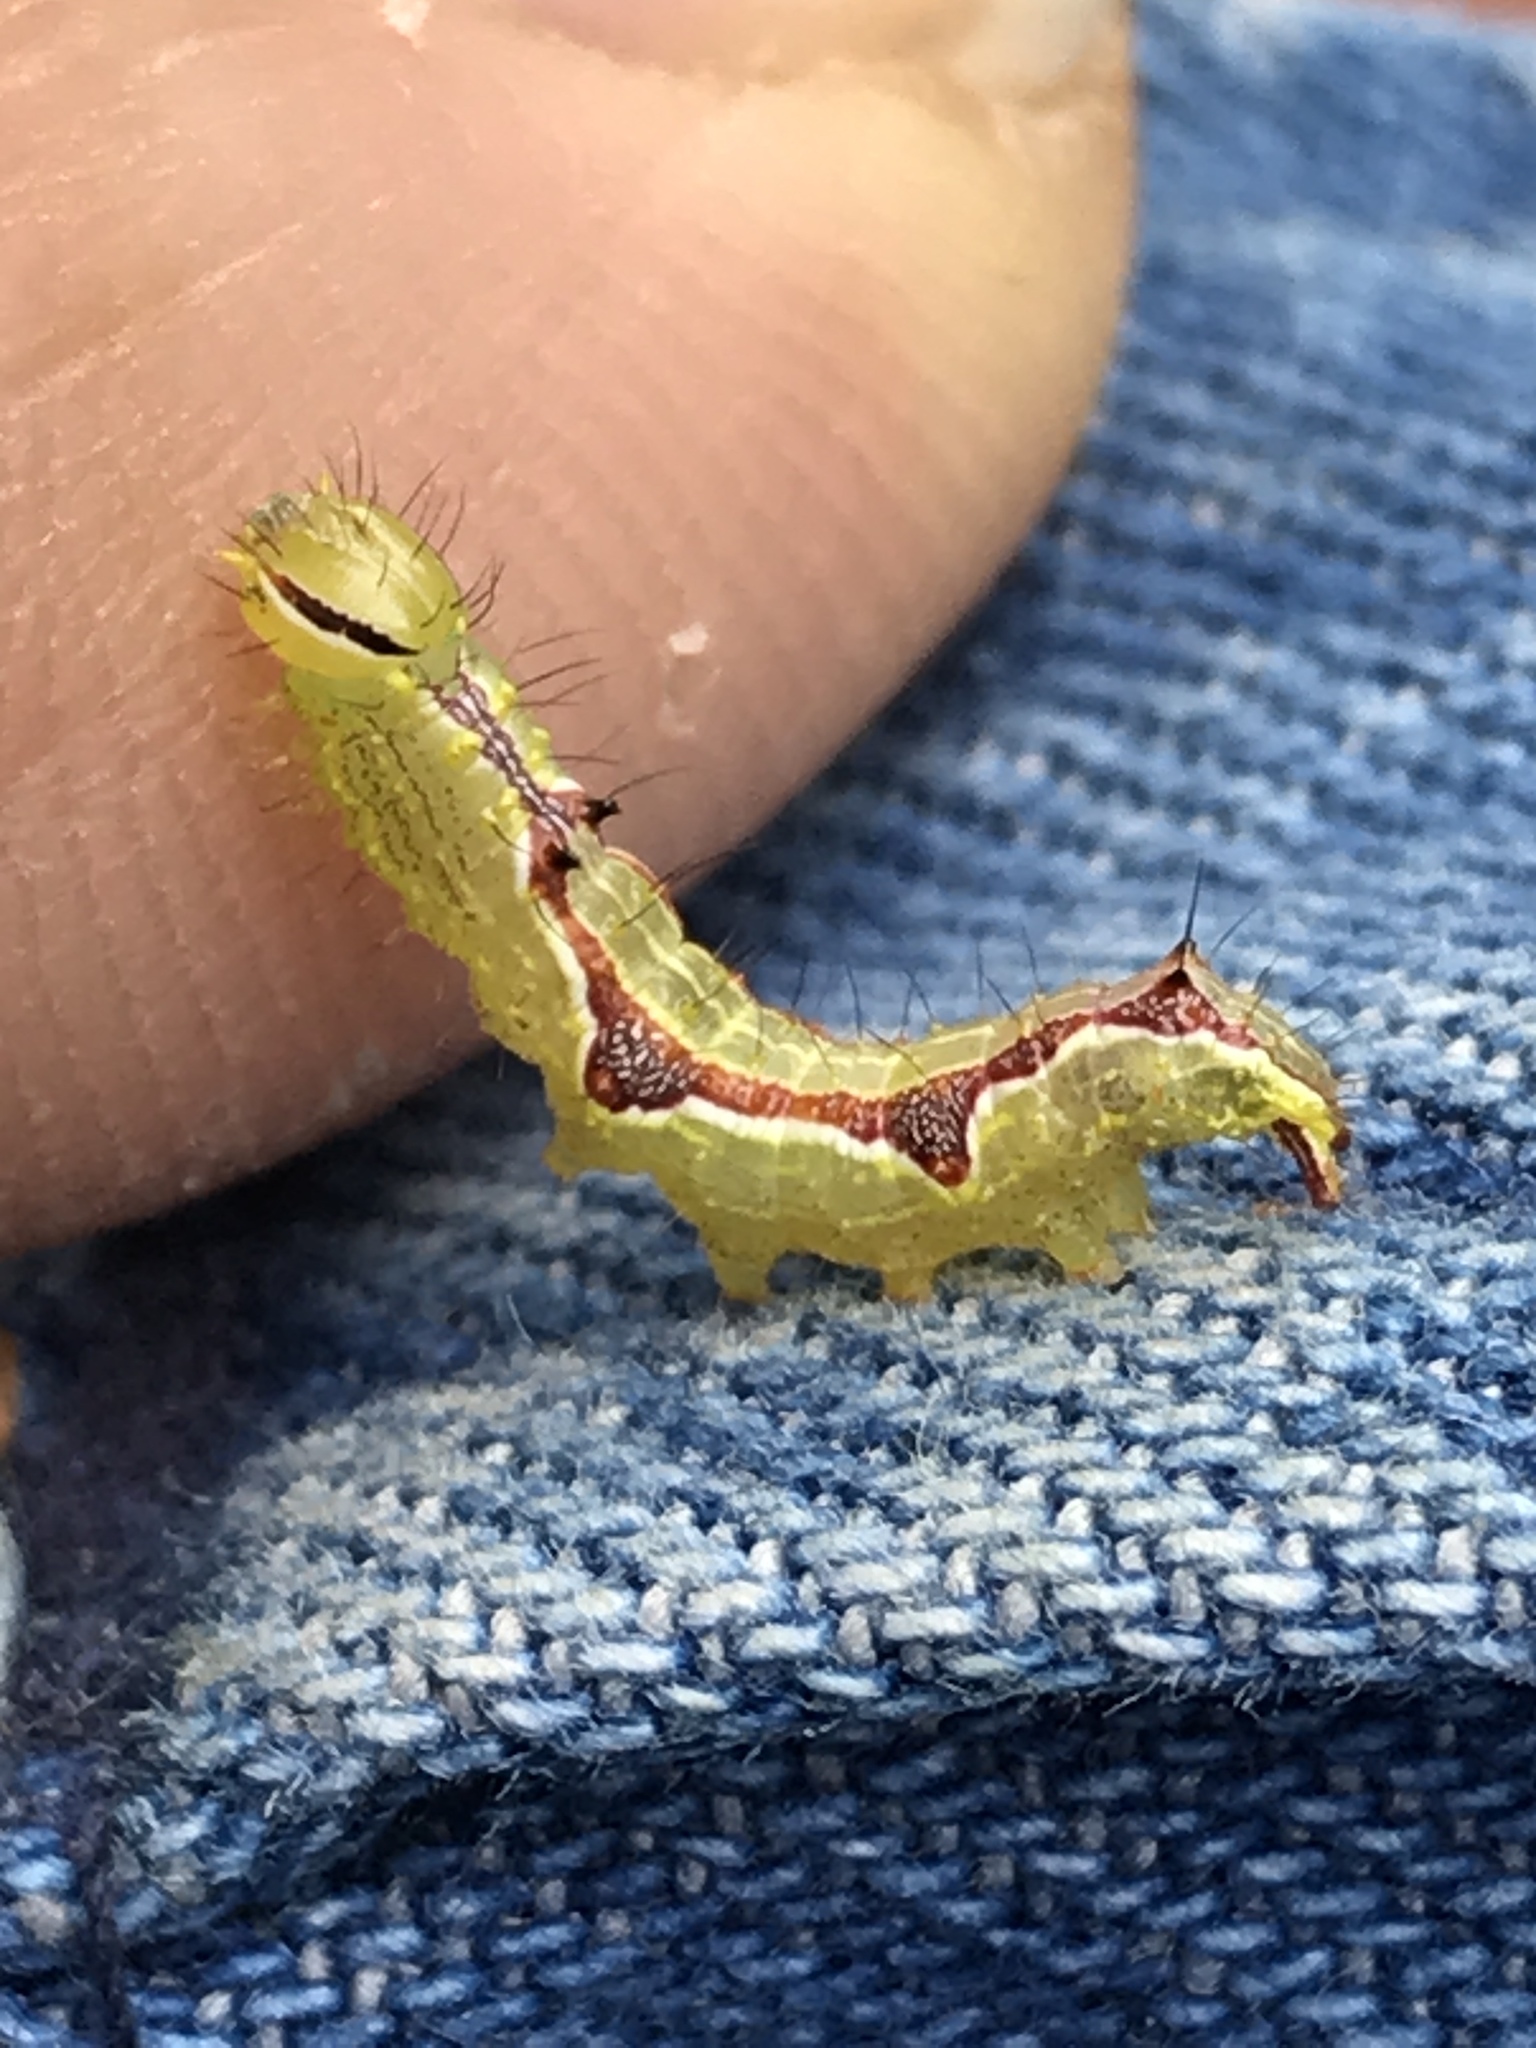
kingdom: Animalia
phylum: Arthropoda
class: Insecta
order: Lepidoptera
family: Notodontidae
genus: Lochmaeus
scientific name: Lochmaeus bilineata
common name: Double-lined prominent
